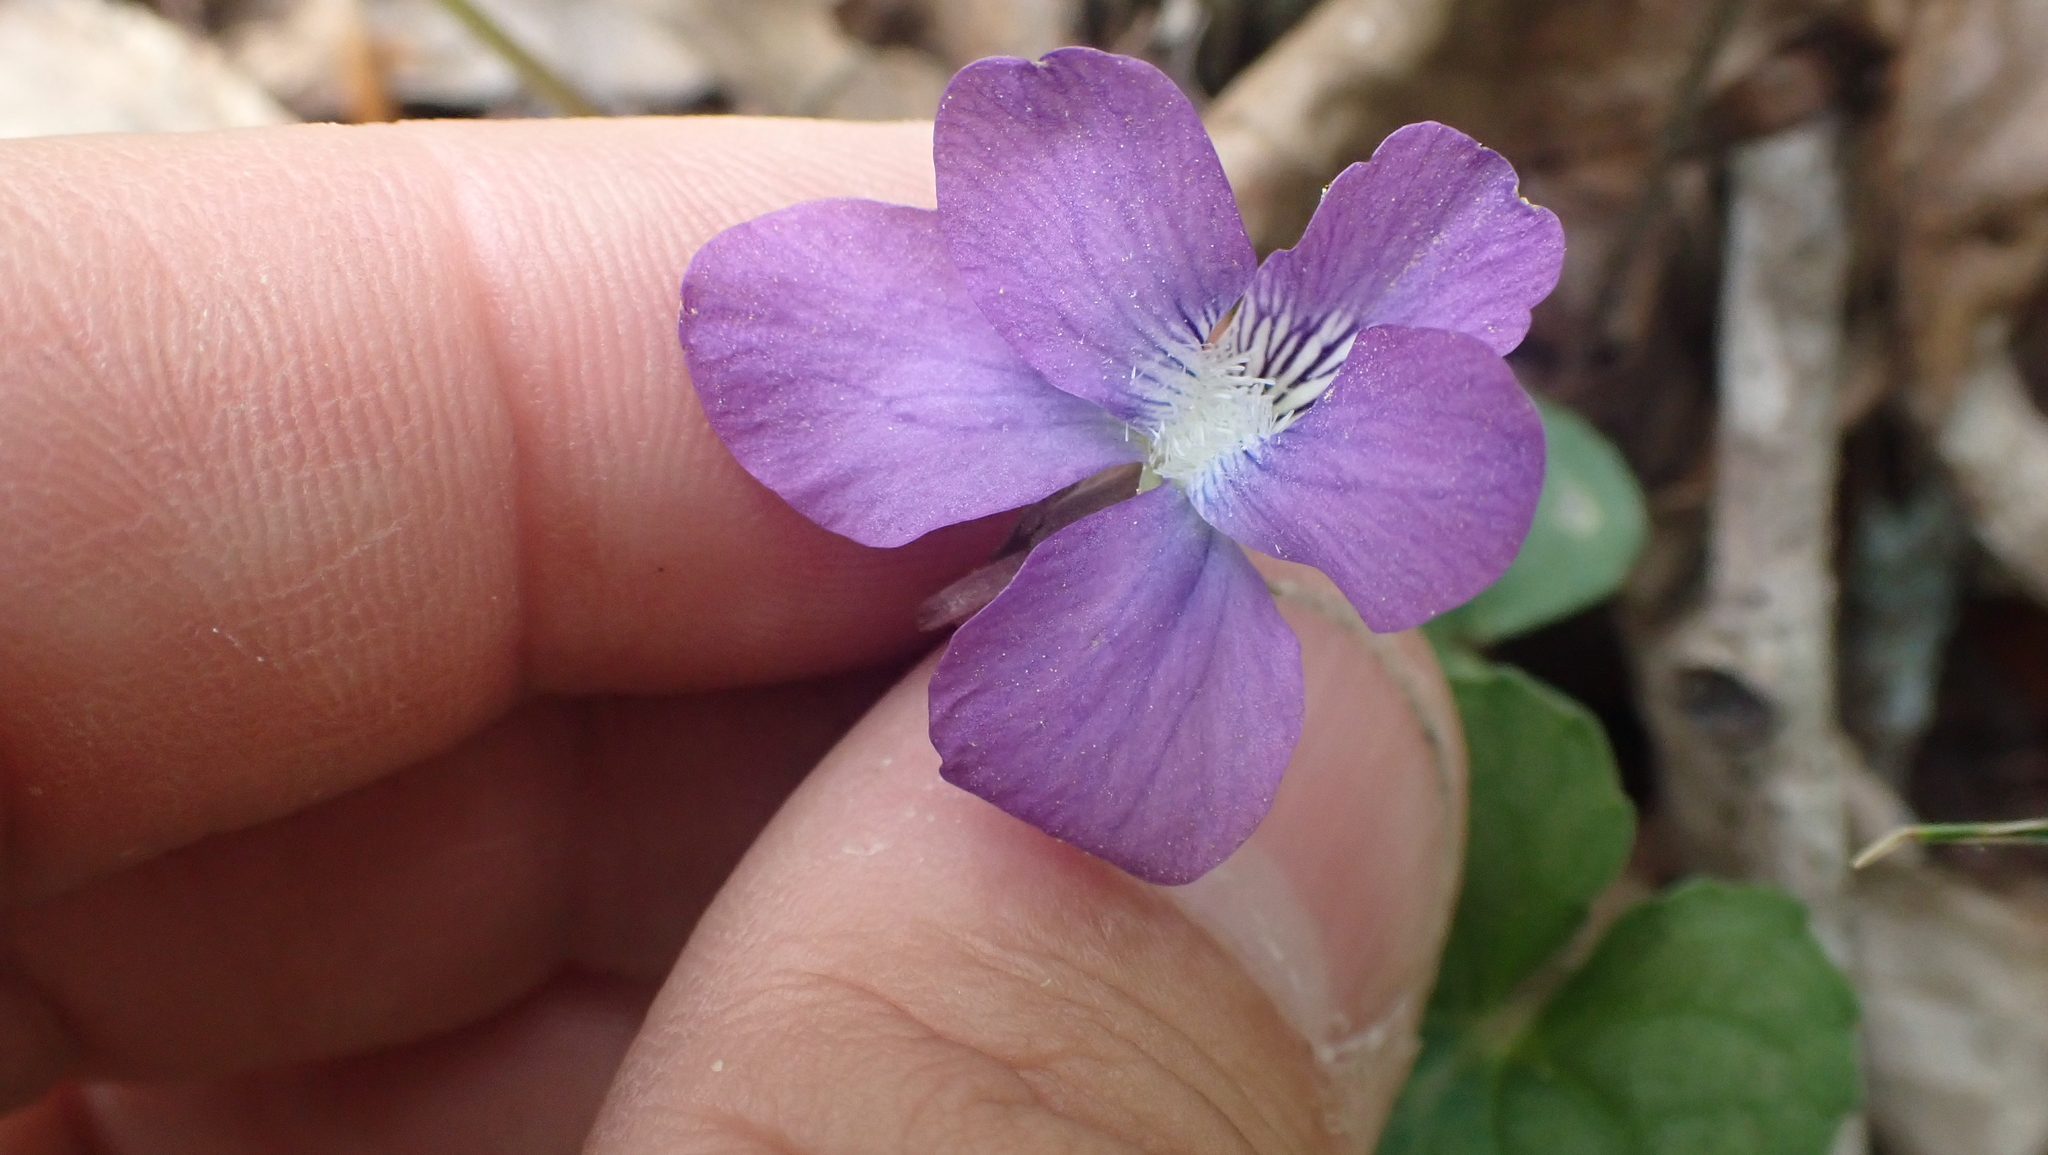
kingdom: Plantae
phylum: Tracheophyta
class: Magnoliopsida
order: Malpighiales
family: Violaceae
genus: Viola
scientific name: Viola hirsutula
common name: Southern wood violet
